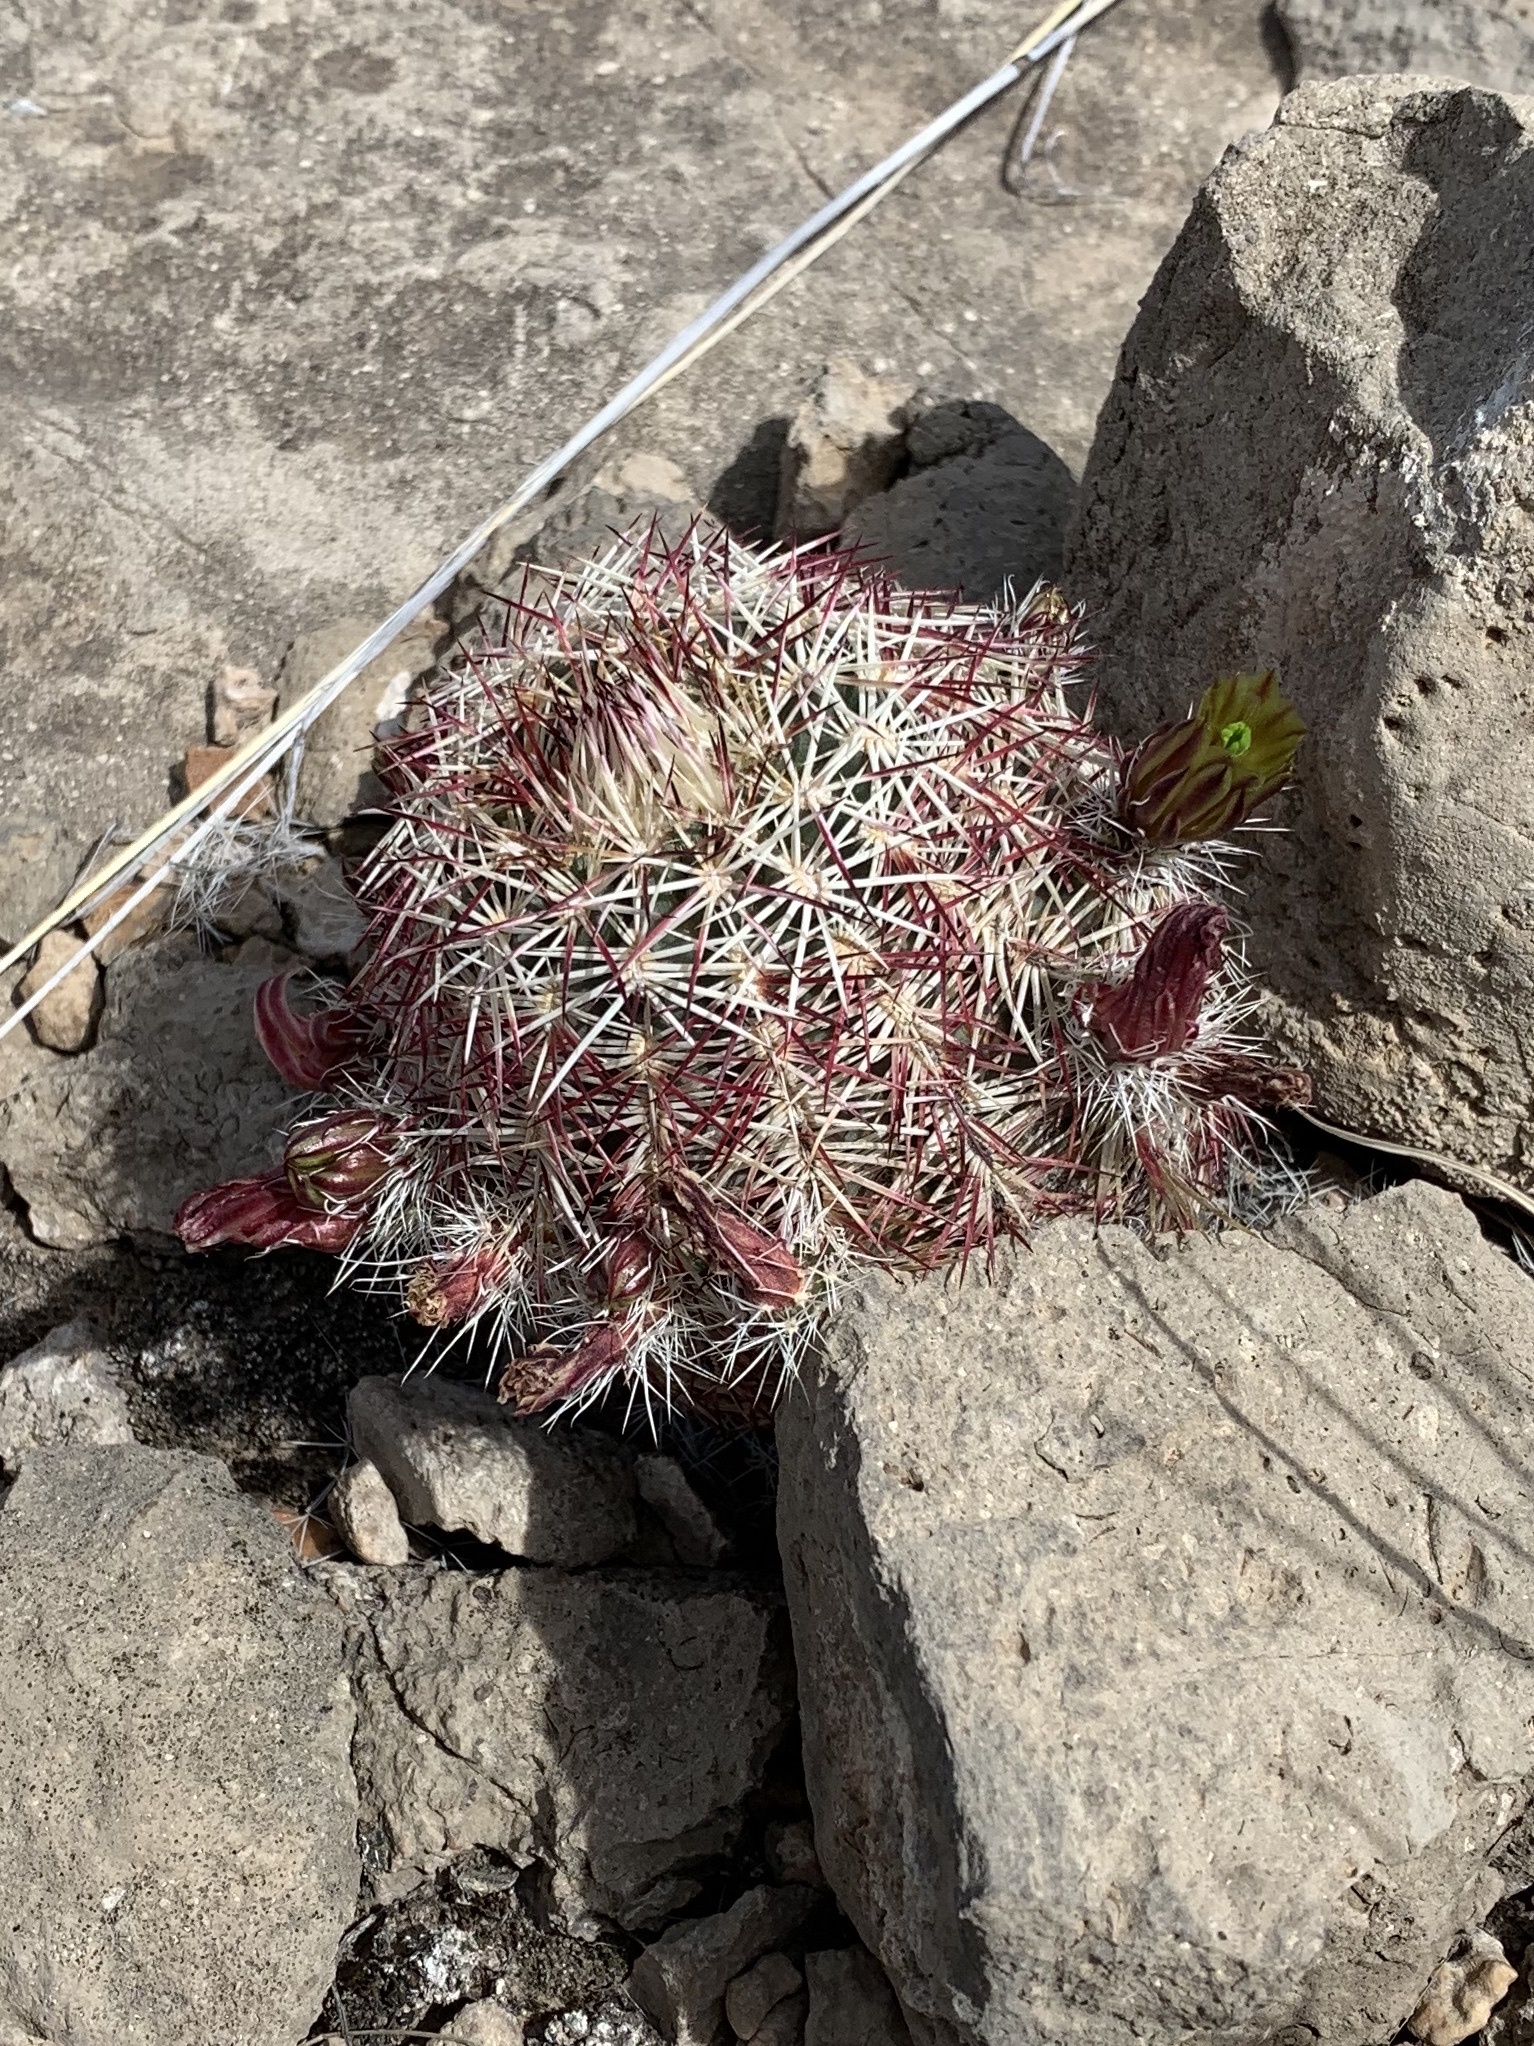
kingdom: Plantae
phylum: Tracheophyta
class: Magnoliopsida
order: Caryophyllales
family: Cactaceae
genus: Echinocereus
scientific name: Echinocereus viridiflorus
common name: Nylon hedgehog cactus
